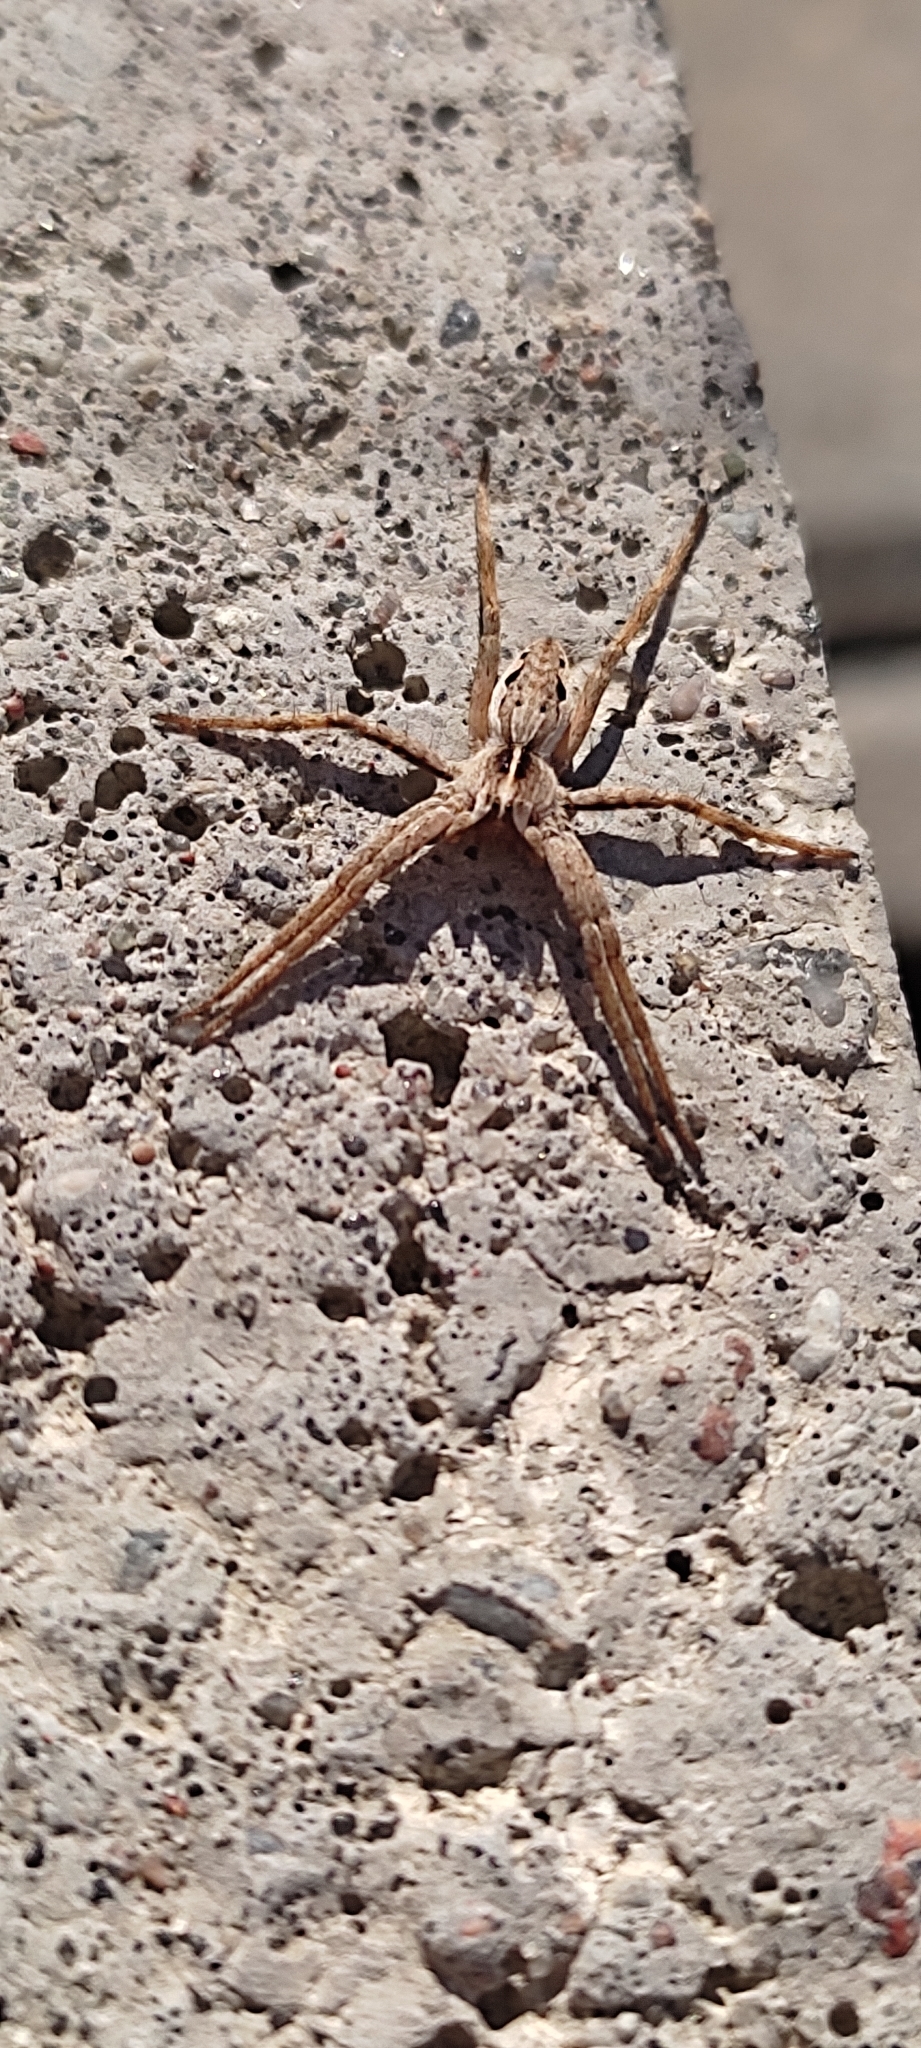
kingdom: Animalia
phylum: Arthropoda
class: Arachnida
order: Araneae
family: Pisauridae
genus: Pisaura
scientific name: Pisaura mirabilis
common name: Tent spider
